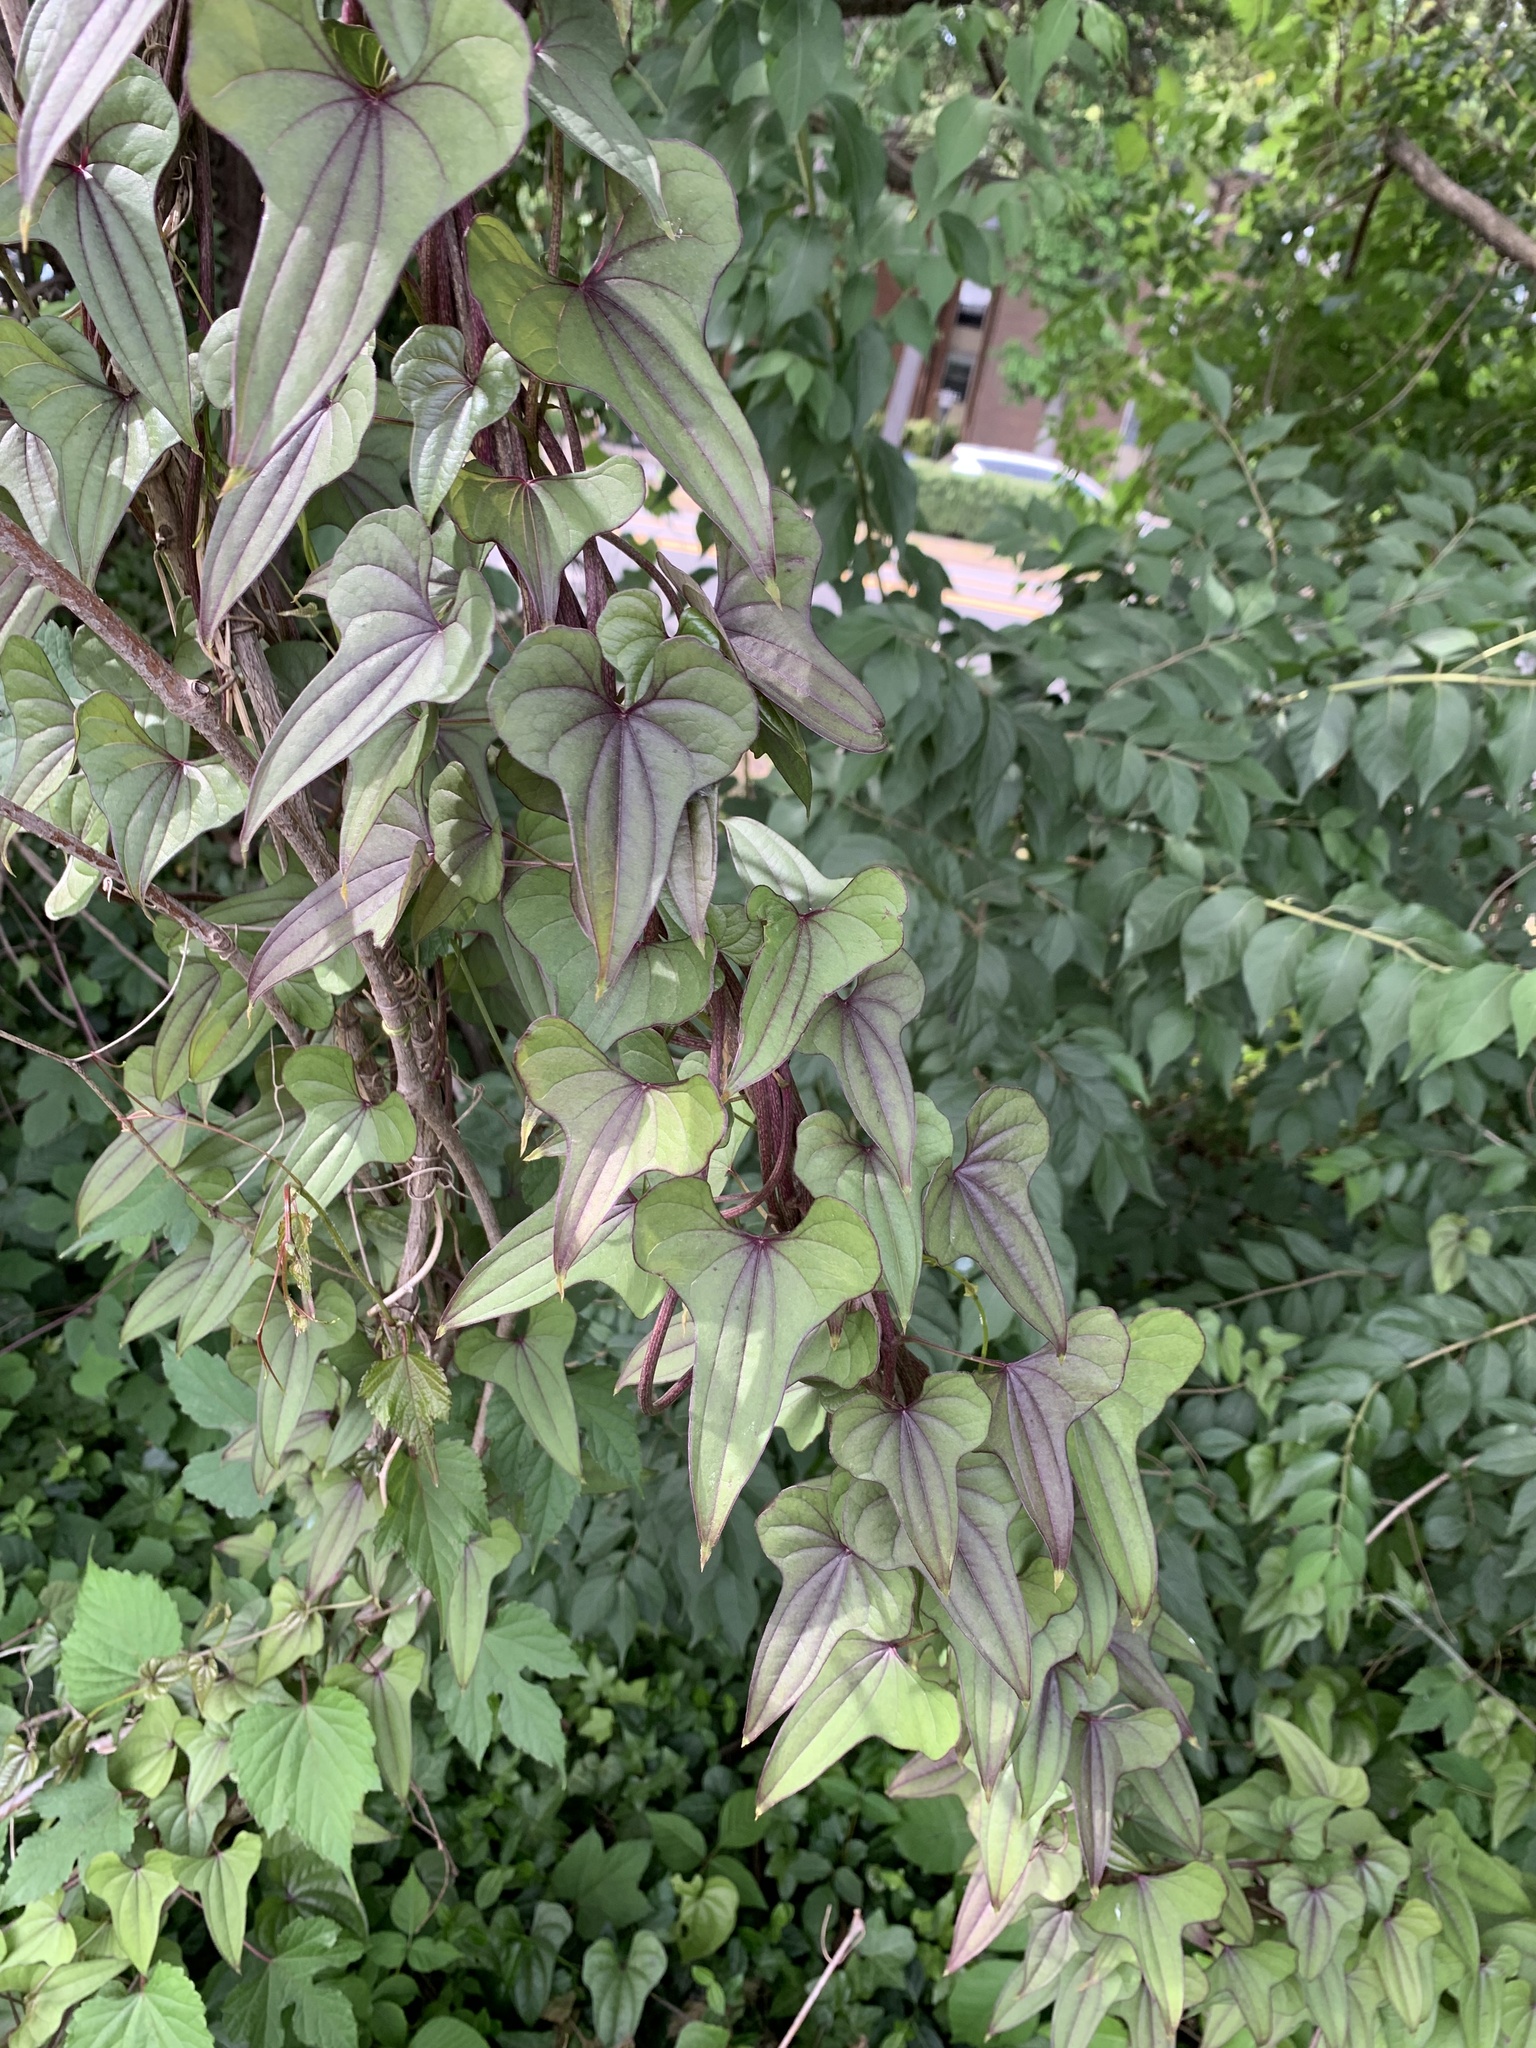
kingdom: Plantae
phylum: Tracheophyta
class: Liliopsida
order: Dioscoreales
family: Dioscoreaceae
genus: Dioscorea
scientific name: Dioscorea polystachya
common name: Chinese yam
